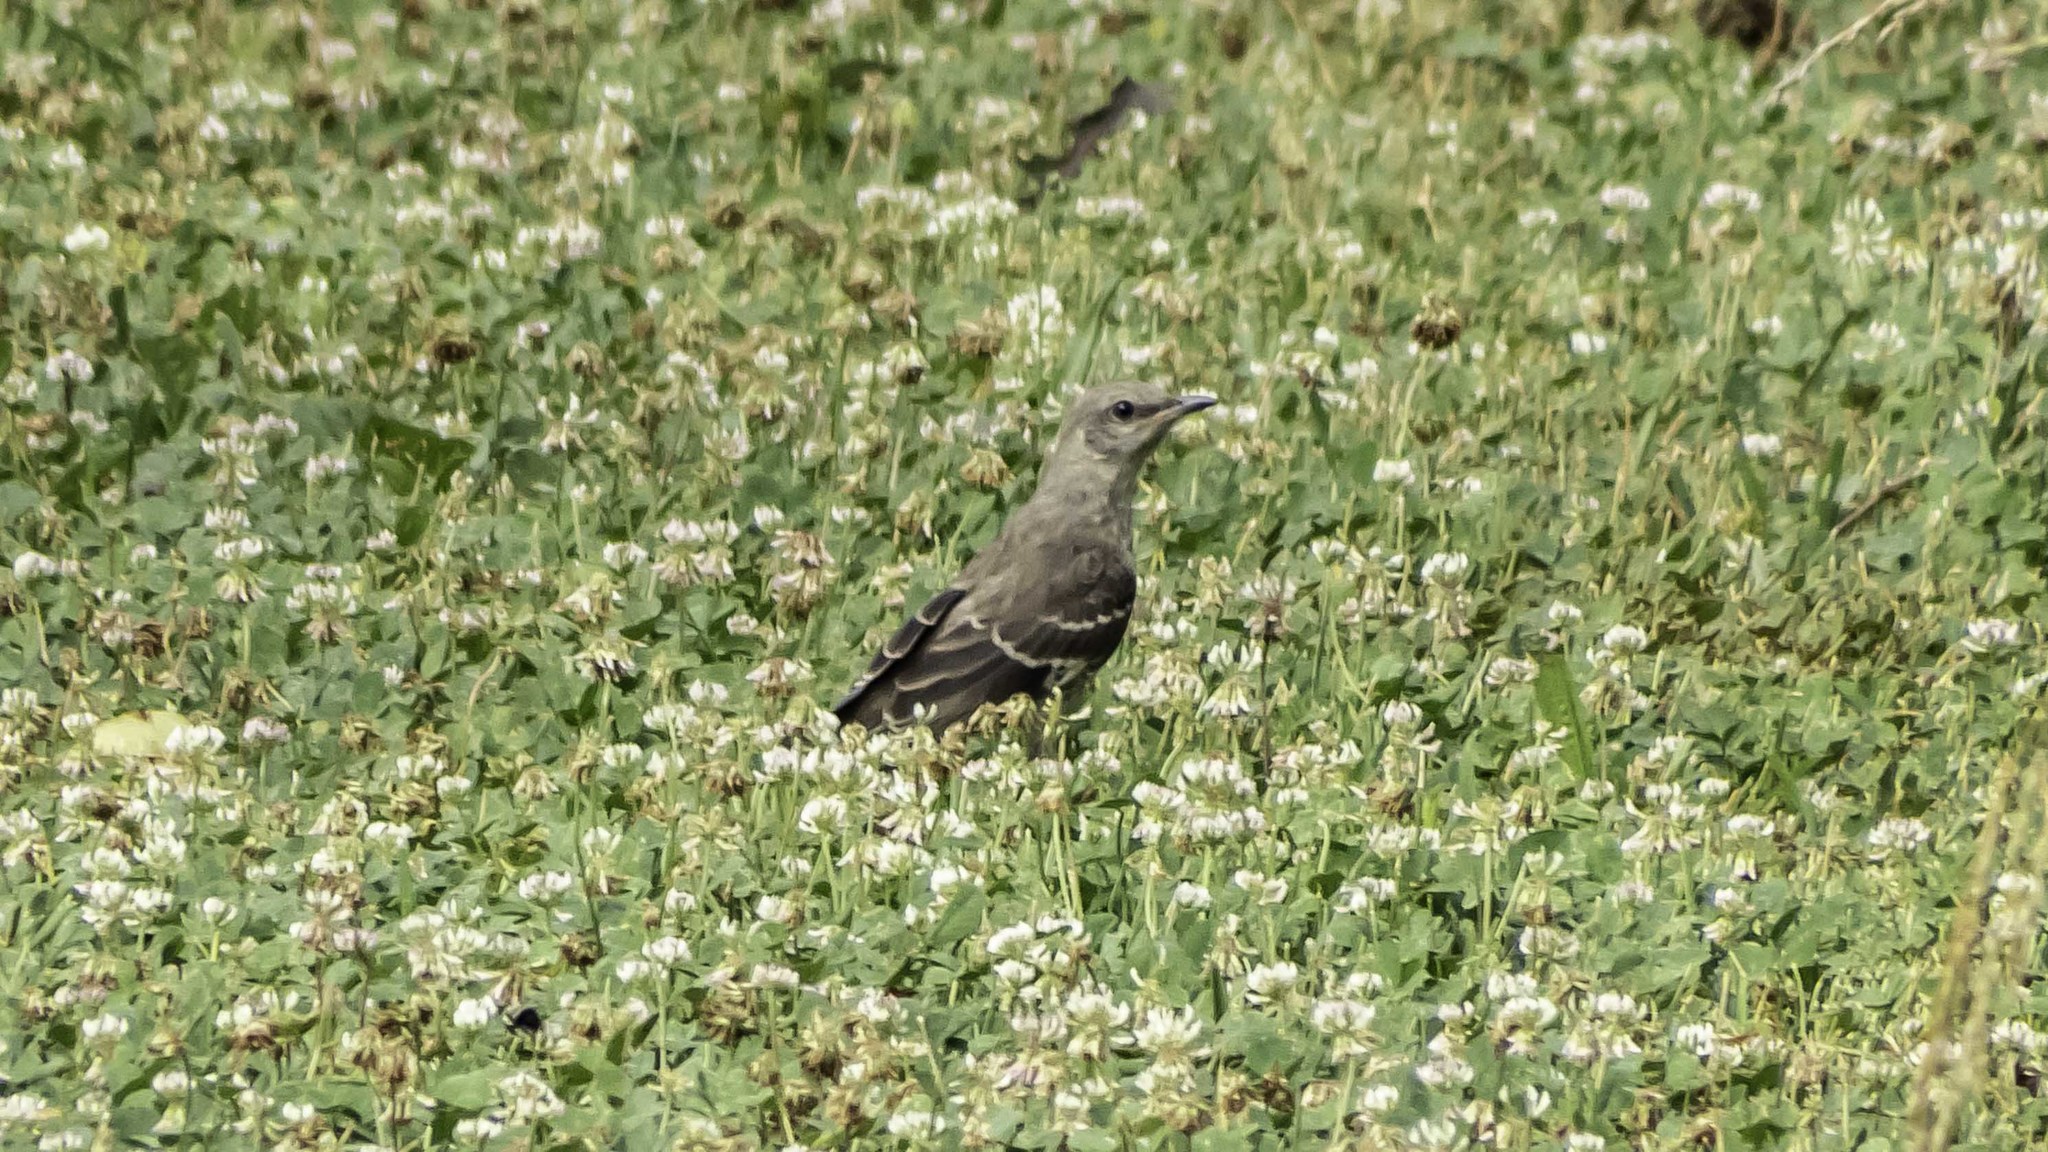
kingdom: Animalia
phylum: Chordata
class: Aves
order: Passeriformes
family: Mimidae
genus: Mimus
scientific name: Mimus polyglottos
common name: Northern mockingbird
